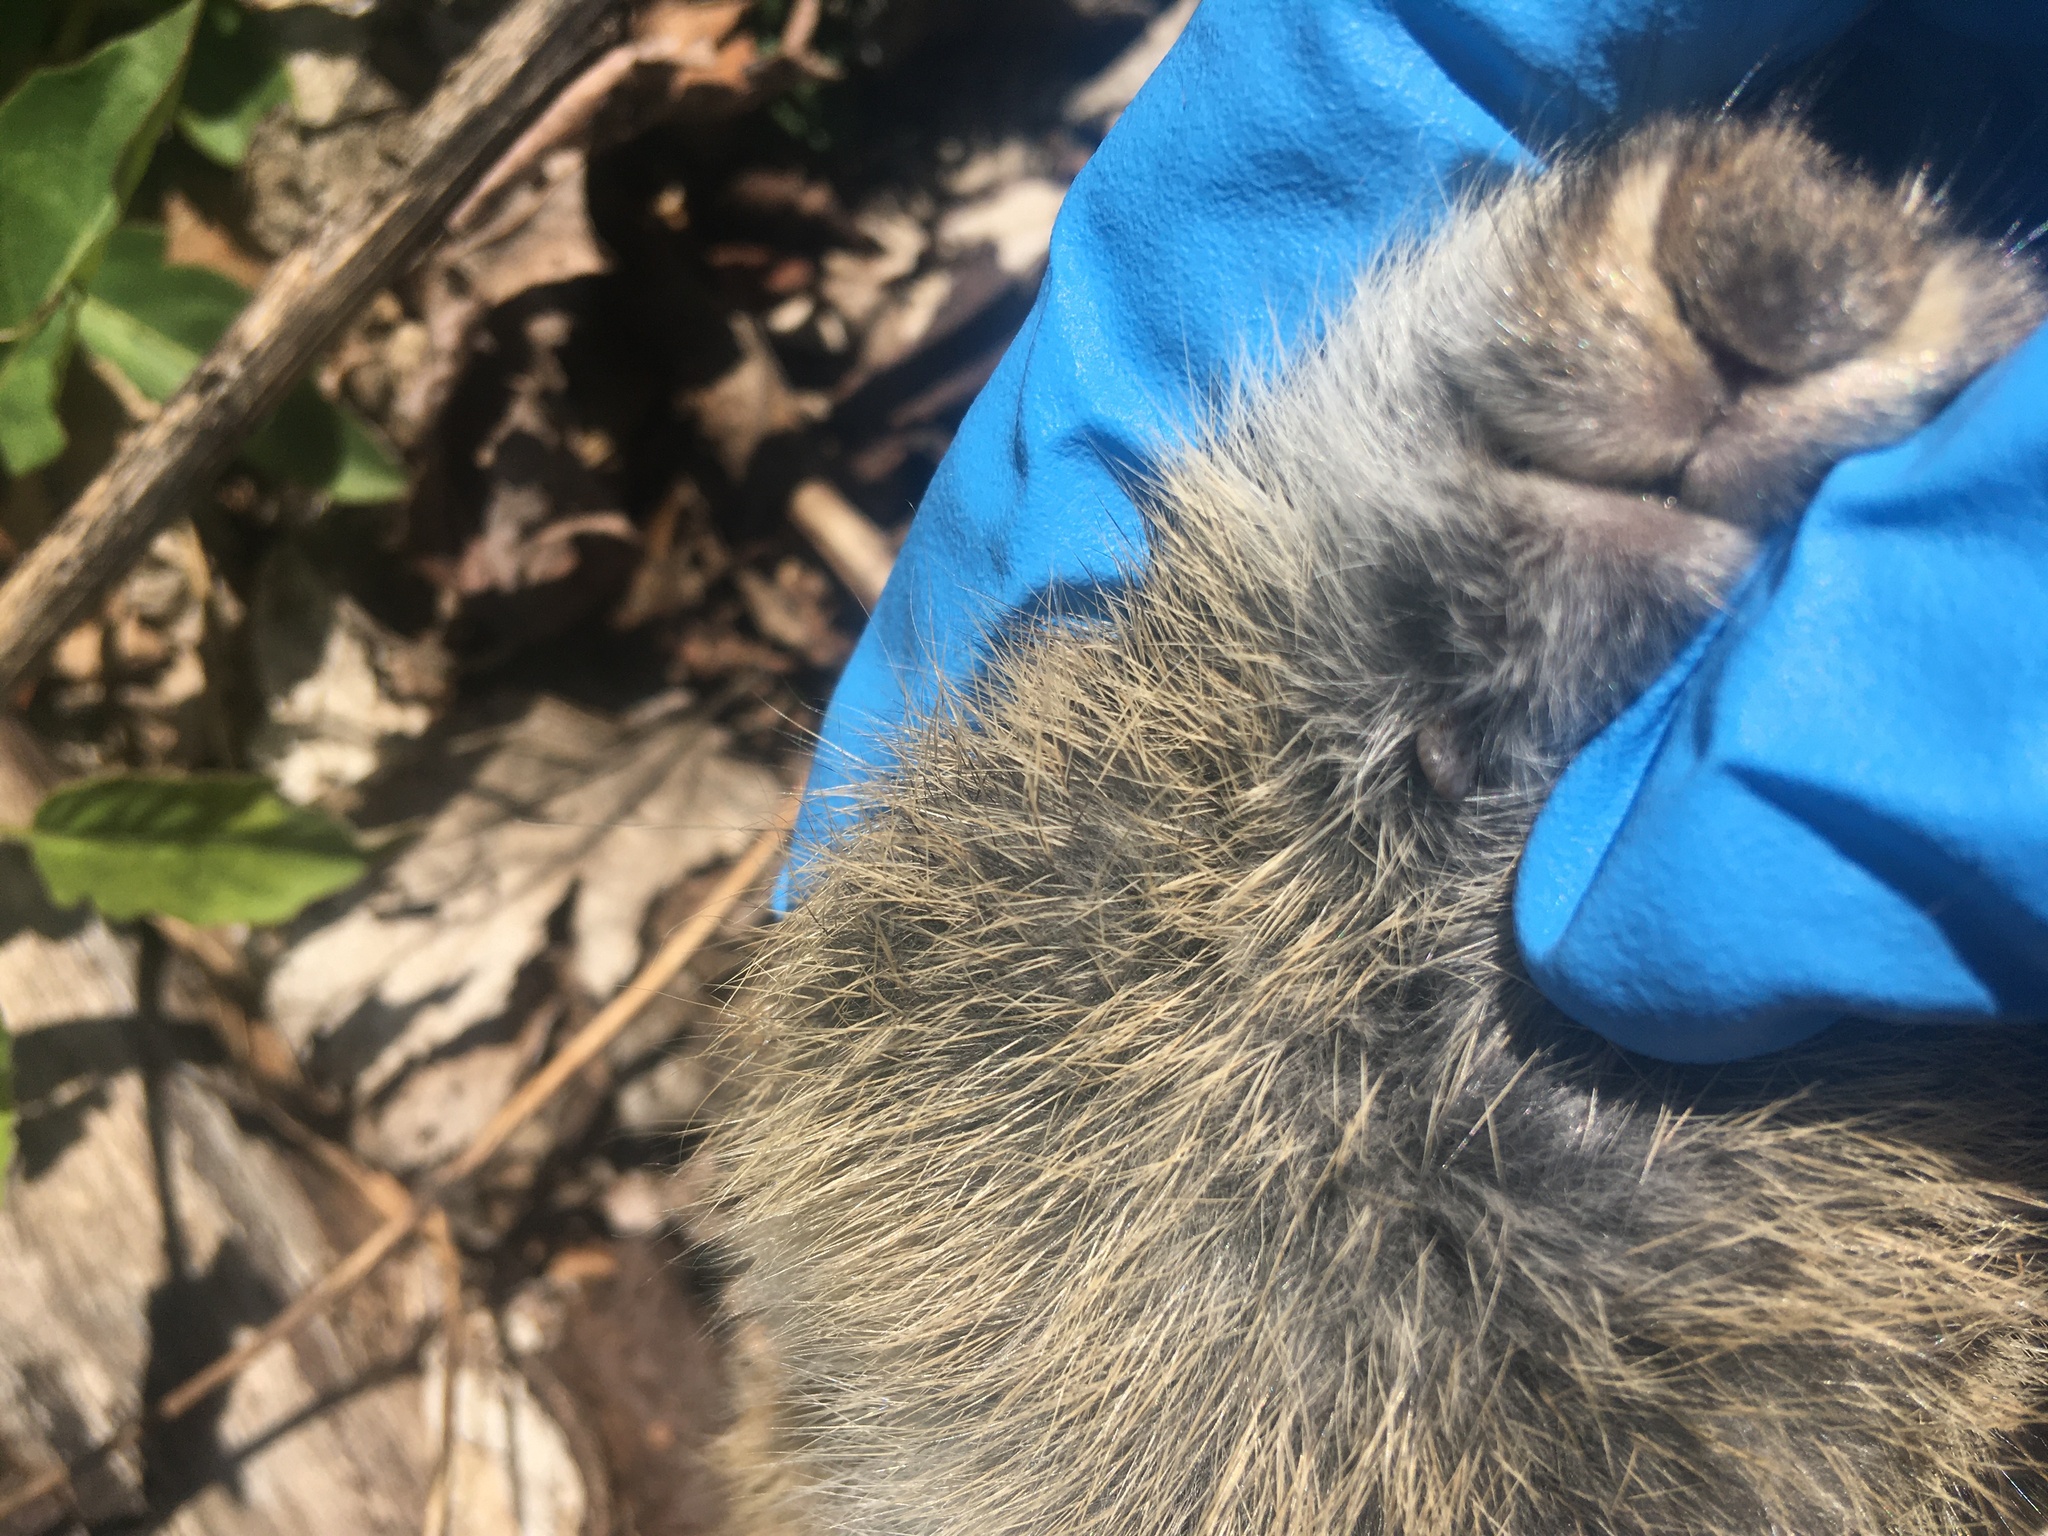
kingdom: Animalia
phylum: Chordata
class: Mammalia
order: Lagomorpha
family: Leporidae
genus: Sylvilagus
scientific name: Sylvilagus floridanus
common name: Eastern cottontail
